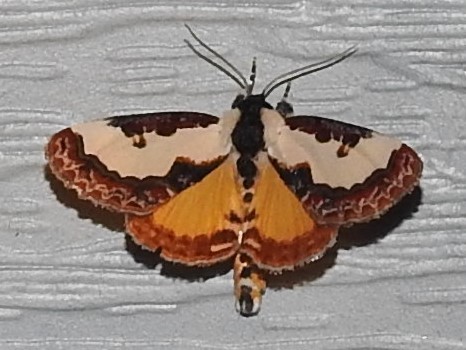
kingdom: Animalia
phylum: Arthropoda
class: Insecta
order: Lepidoptera
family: Noctuidae
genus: Eudryas
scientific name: Eudryas unio
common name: Pearly wood-nymph
